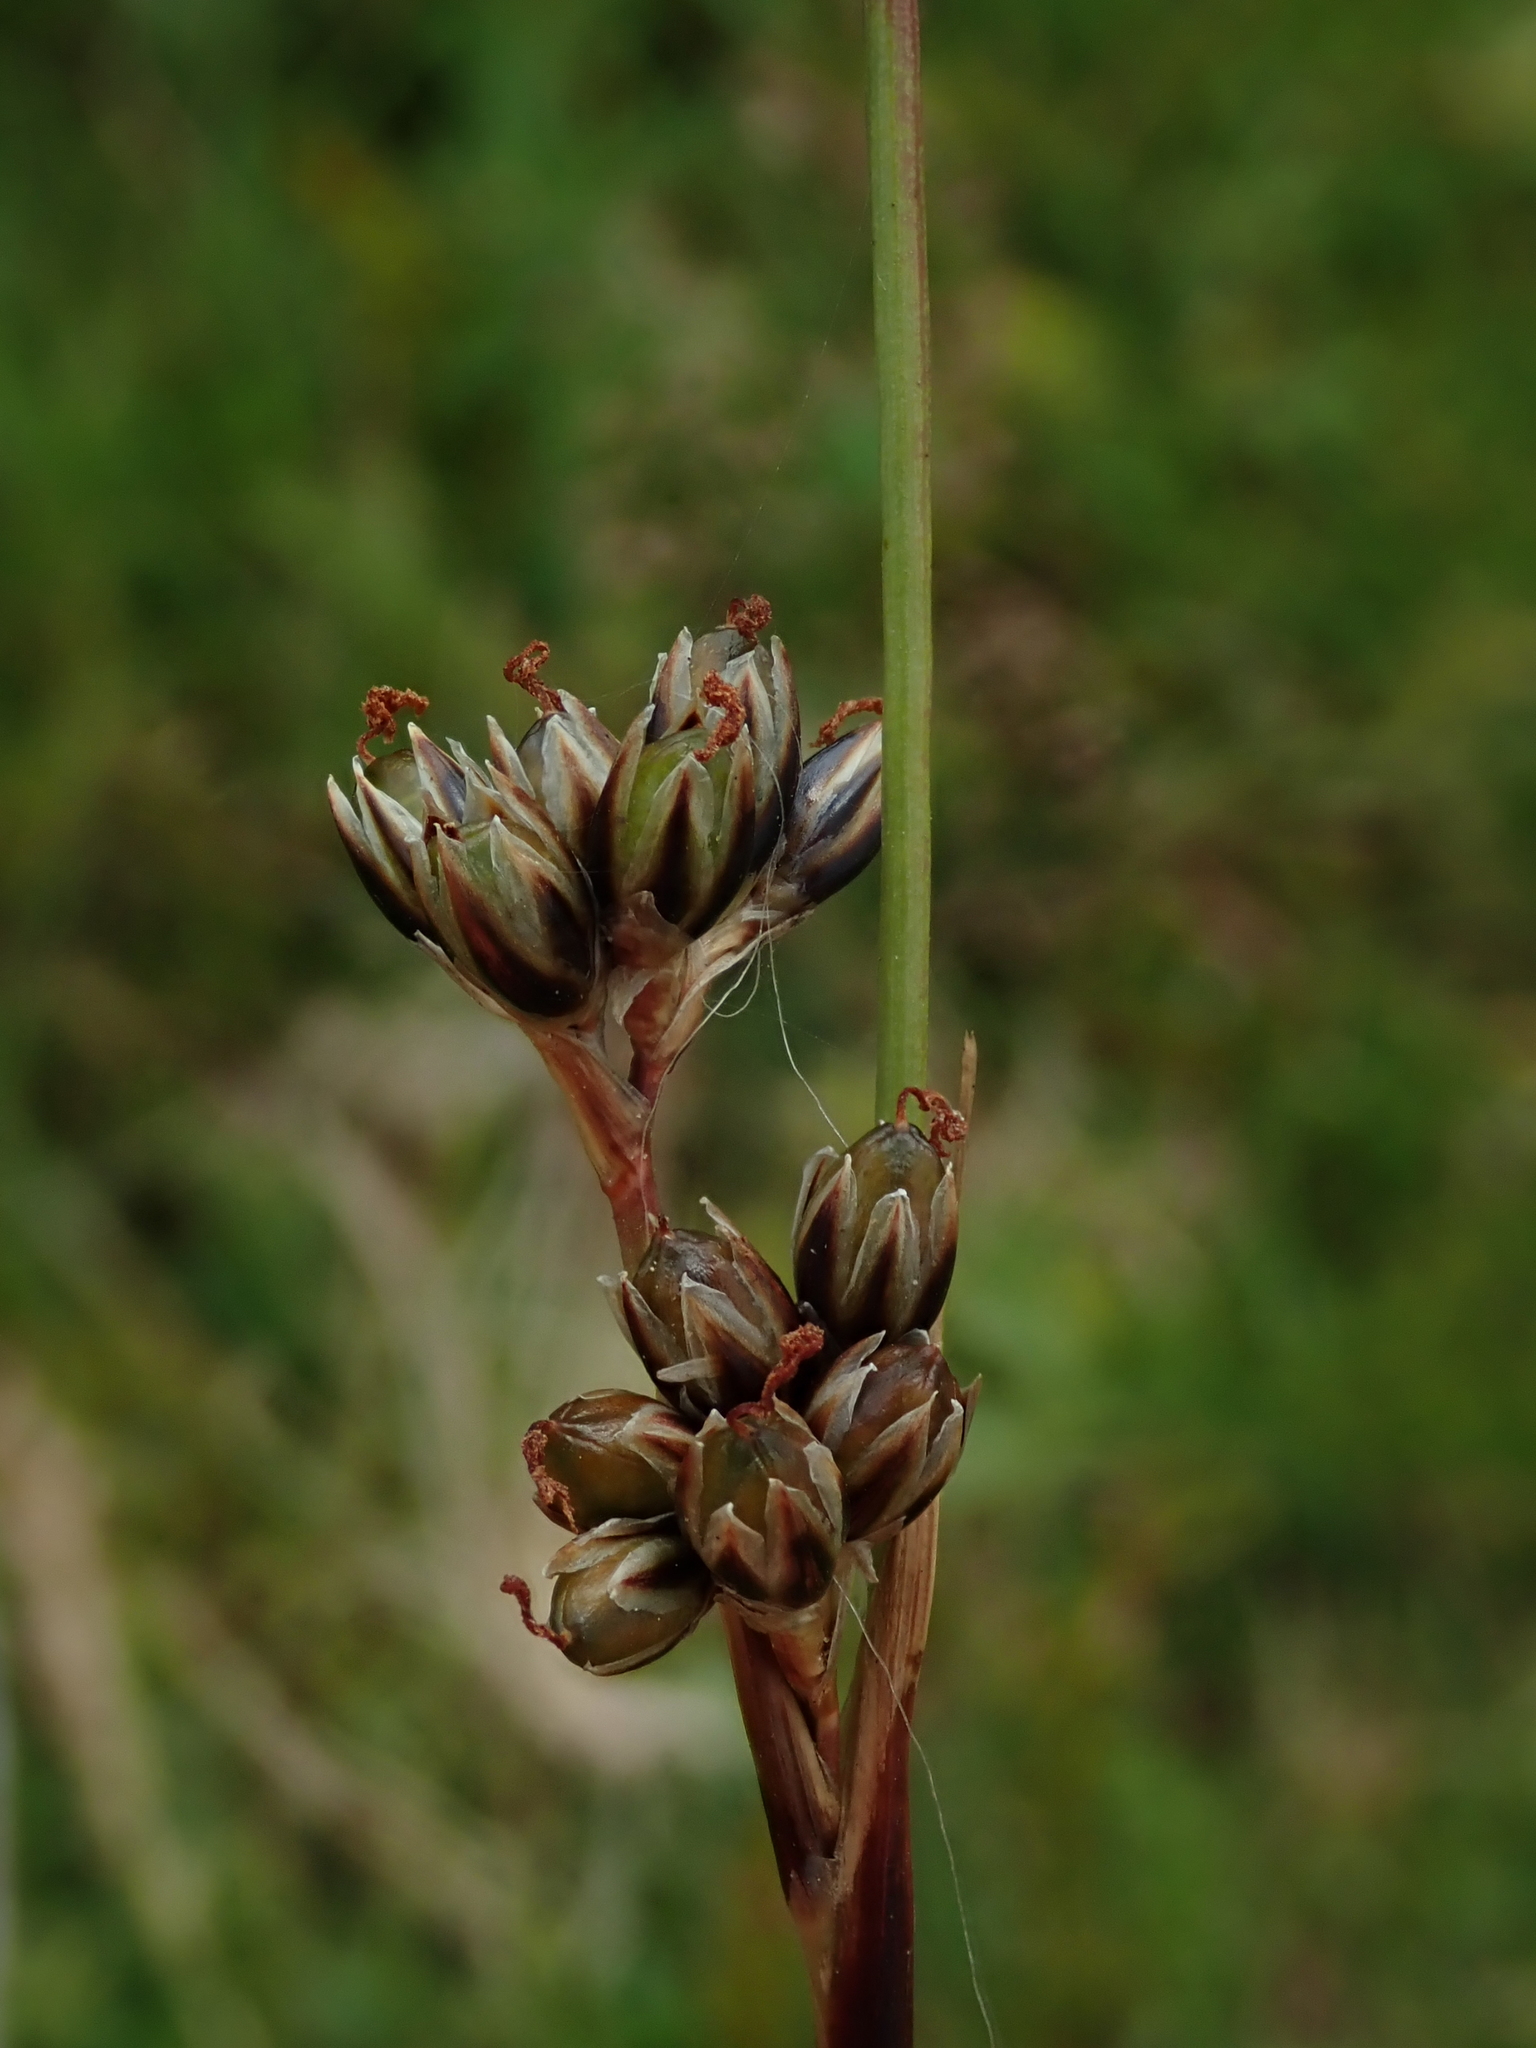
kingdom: Plantae
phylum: Tracheophyta
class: Liliopsida
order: Poales
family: Juncaceae
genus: Juncus
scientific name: Juncus squarrosus
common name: Heath rush
